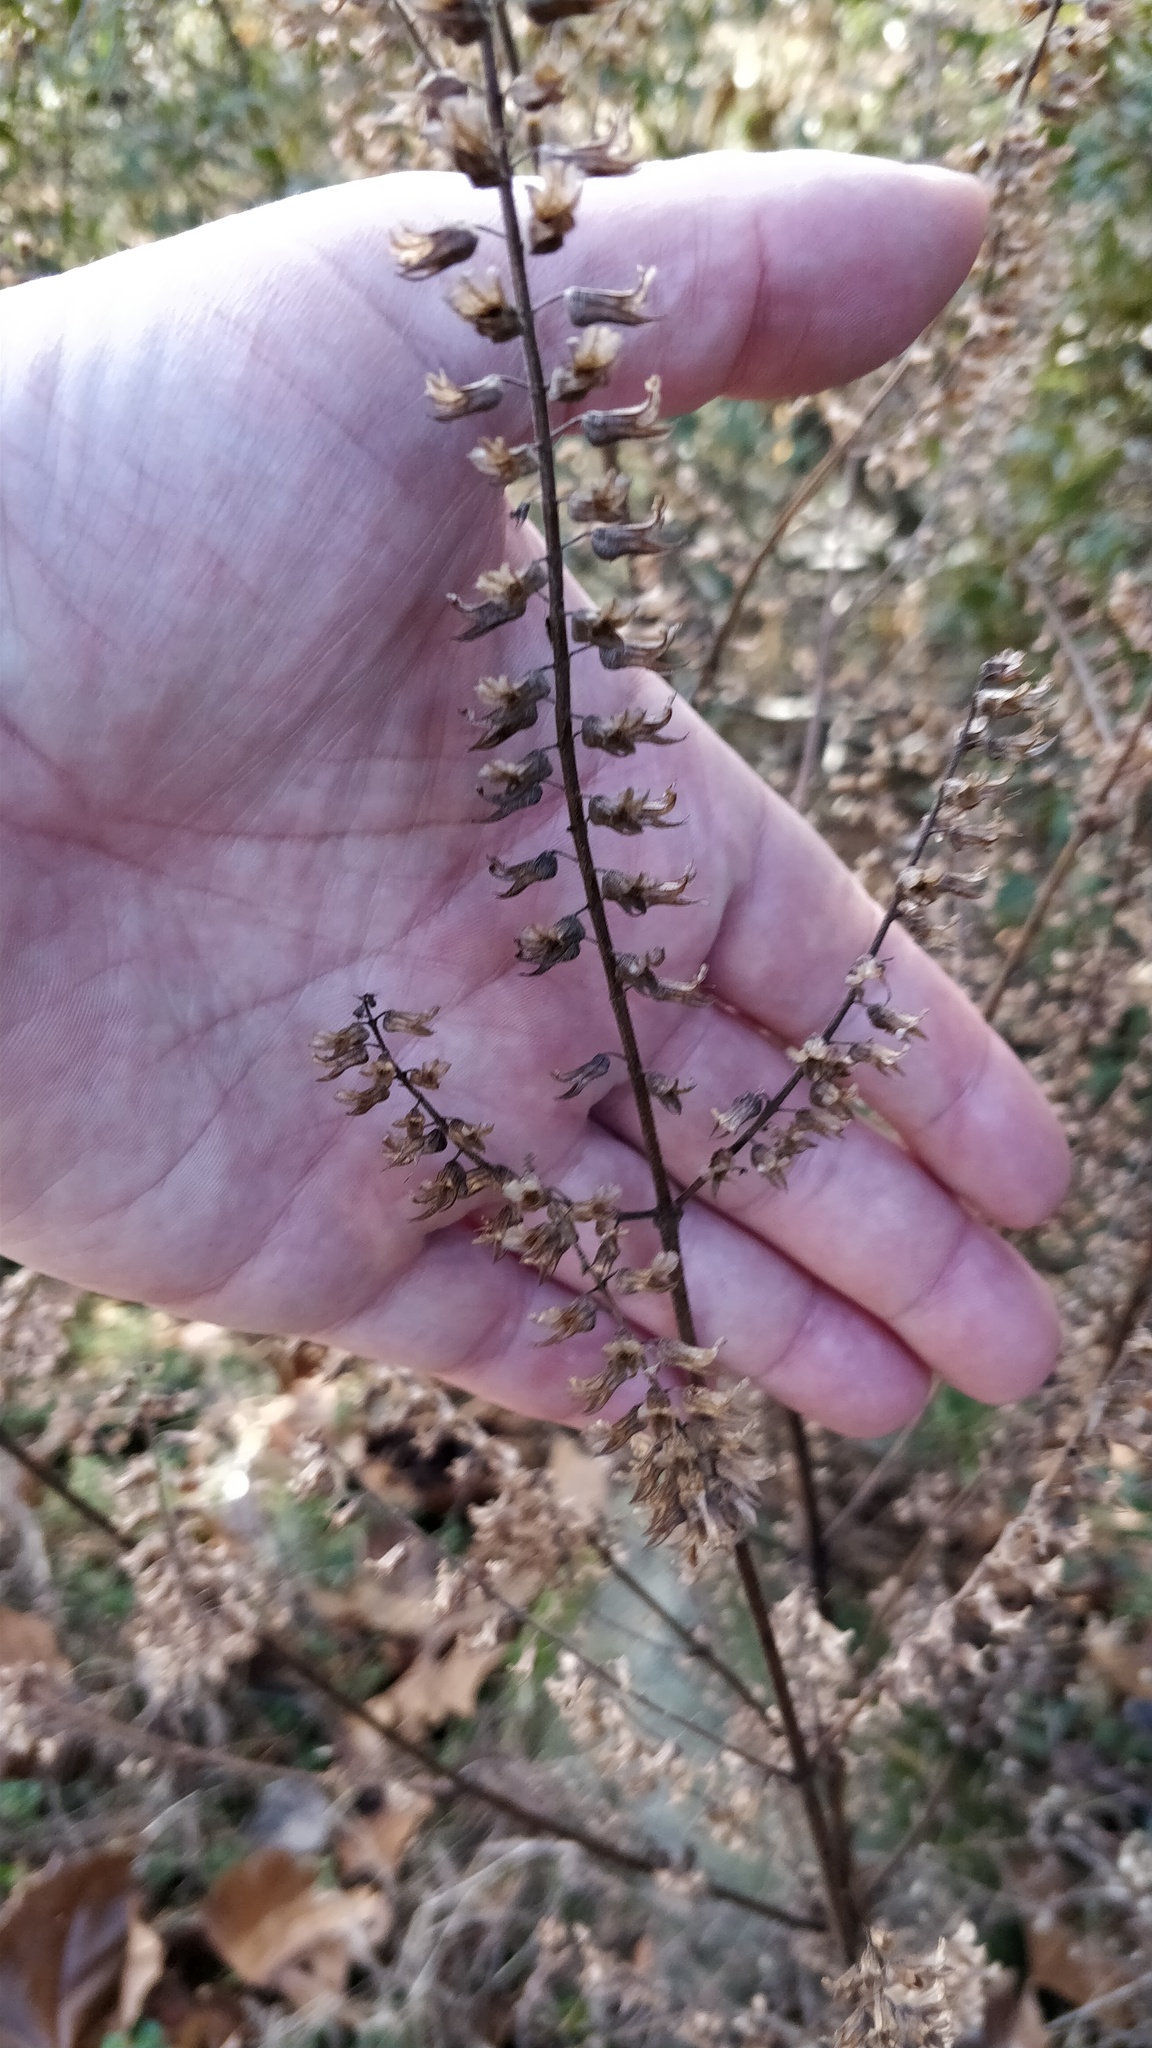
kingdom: Plantae
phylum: Tracheophyta
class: Magnoliopsida
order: Lamiales
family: Lamiaceae
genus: Perilla
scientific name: Perilla frutescens
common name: Perilla
